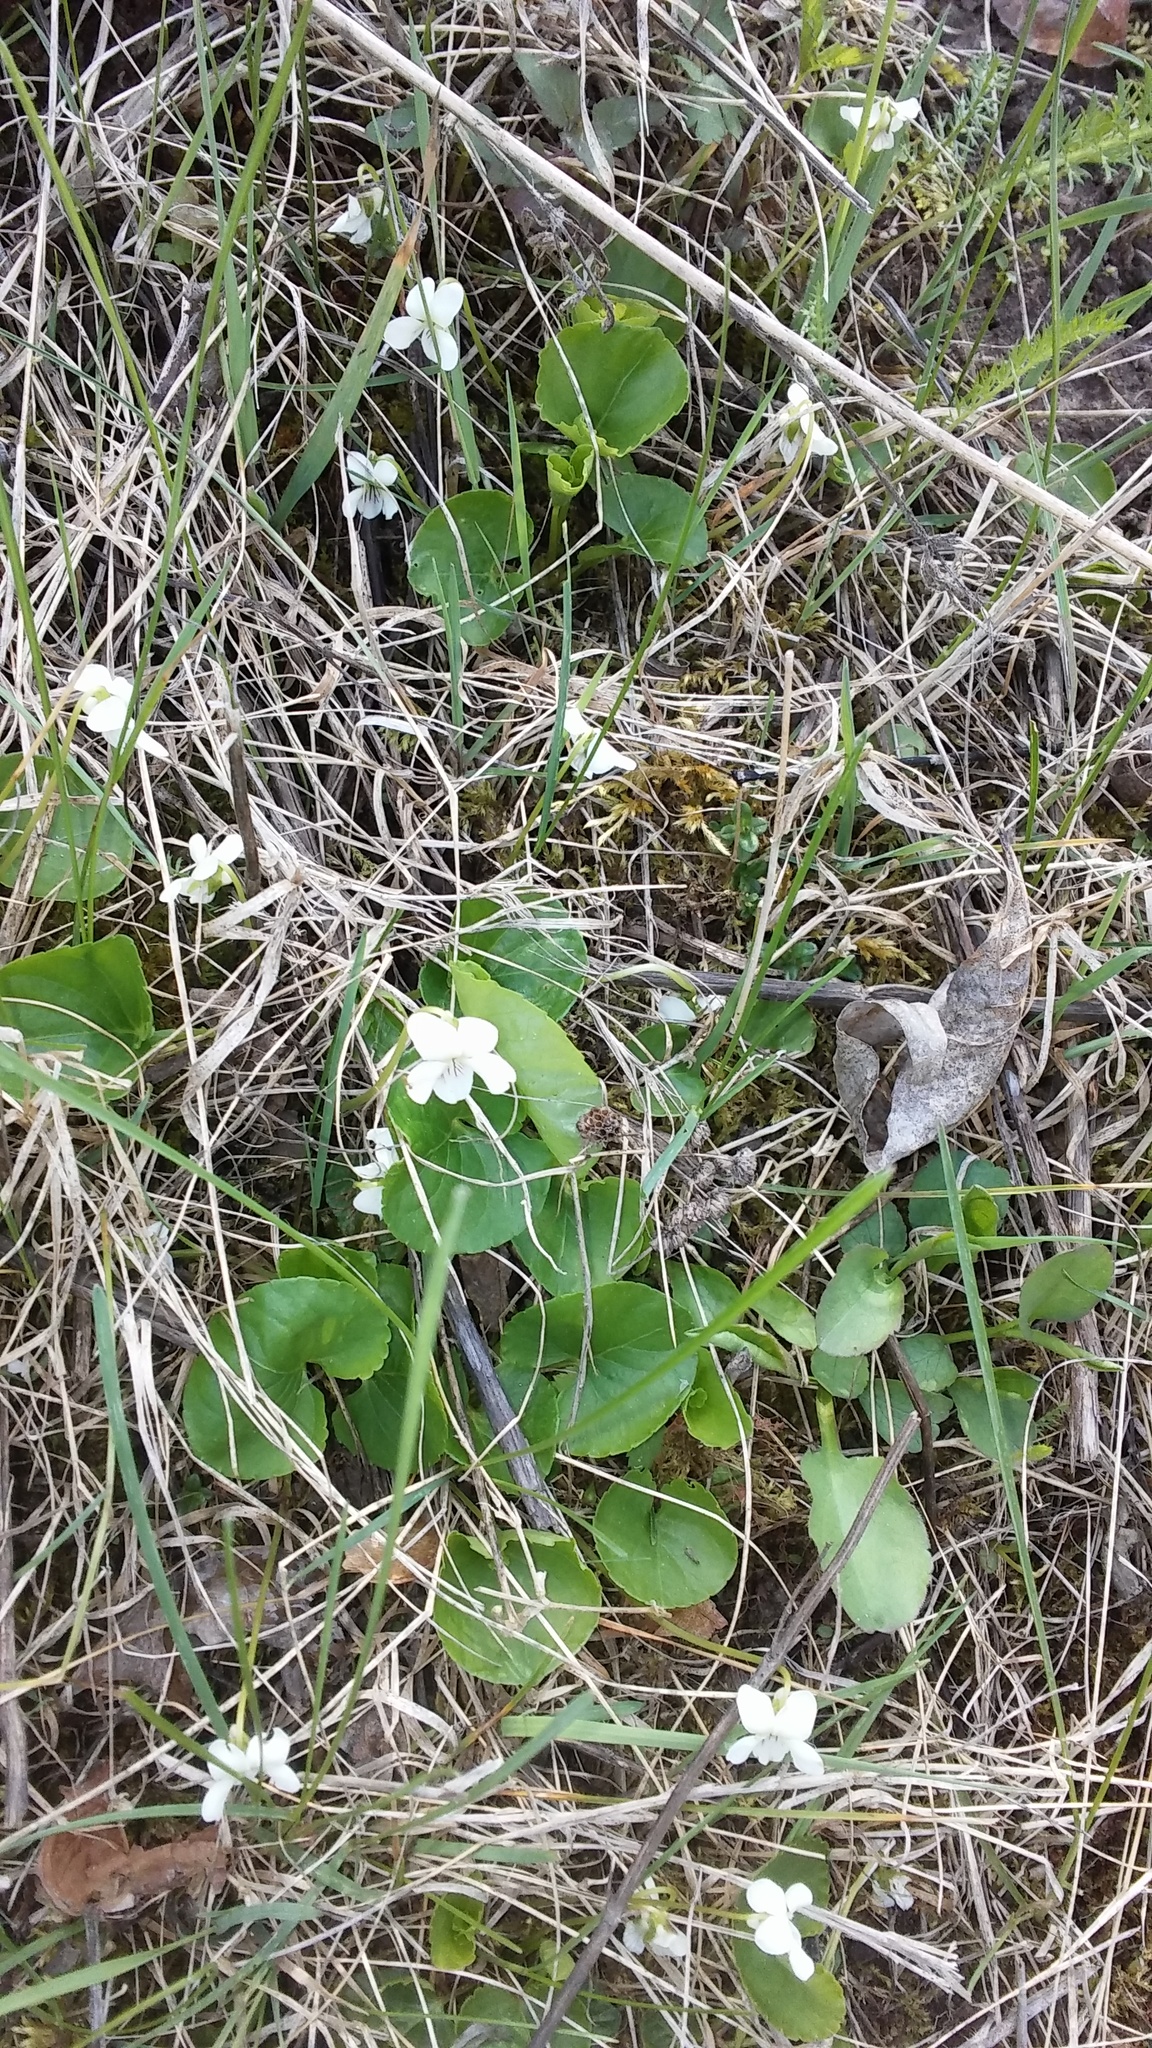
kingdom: Plantae
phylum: Tracheophyta
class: Magnoliopsida
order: Malpighiales
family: Violaceae
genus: Viola
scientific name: Viola minuscula
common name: Northern white violet
